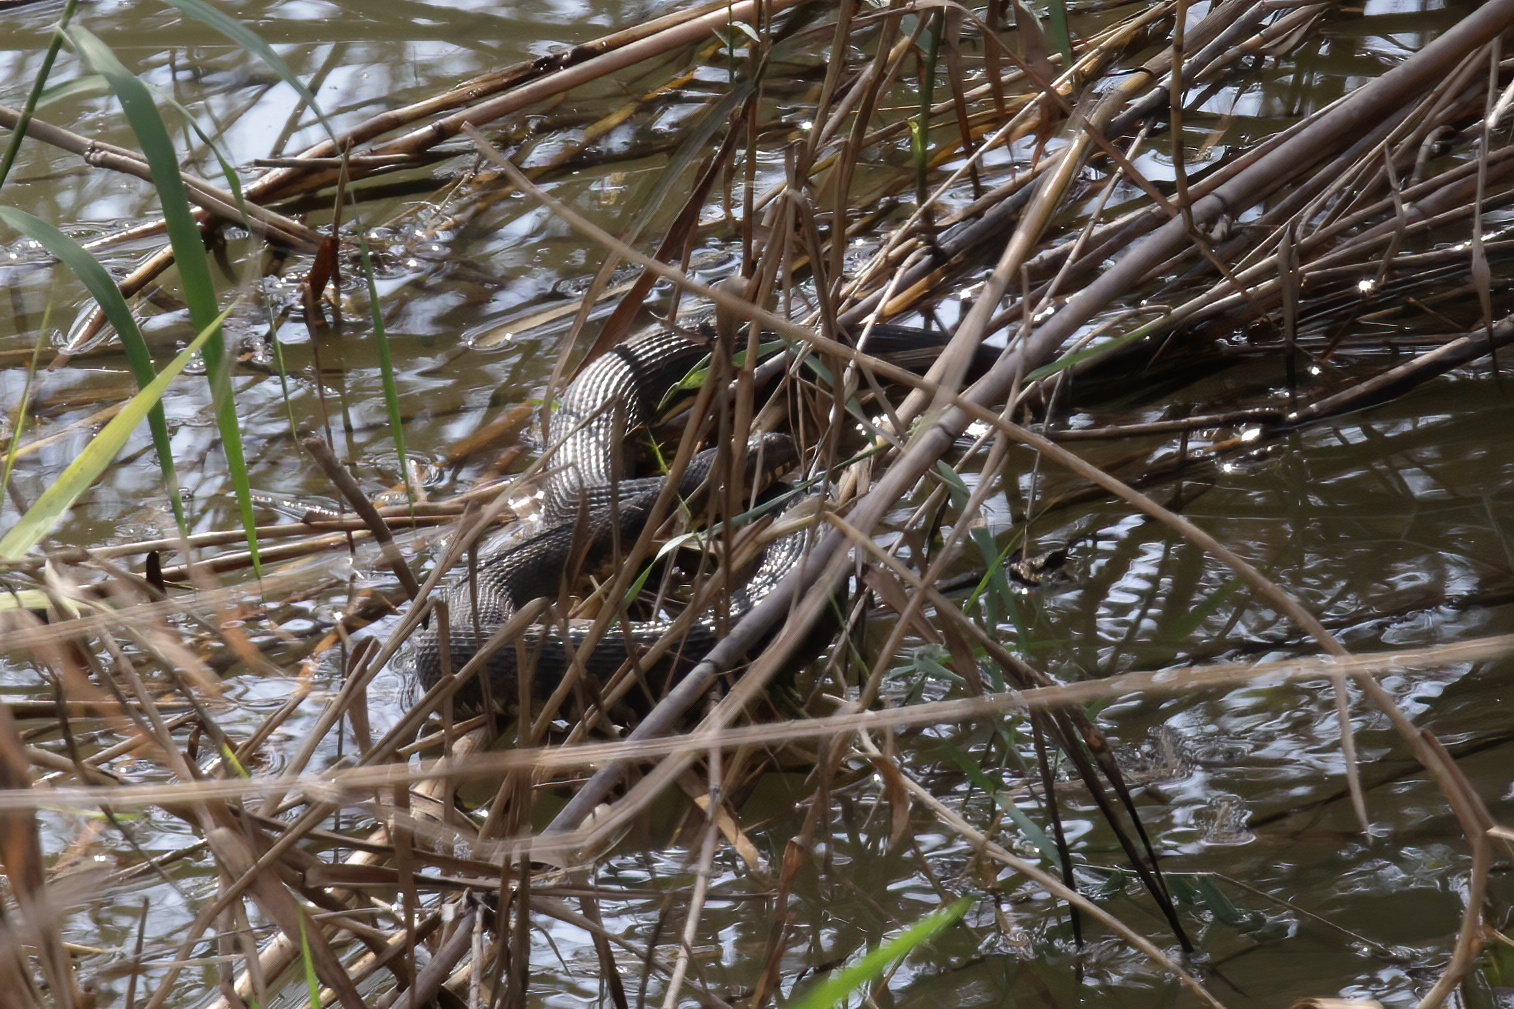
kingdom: Animalia
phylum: Chordata
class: Squamata
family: Colubridae
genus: Nerodia
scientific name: Nerodia rhombifer
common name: Diamondback water snake
